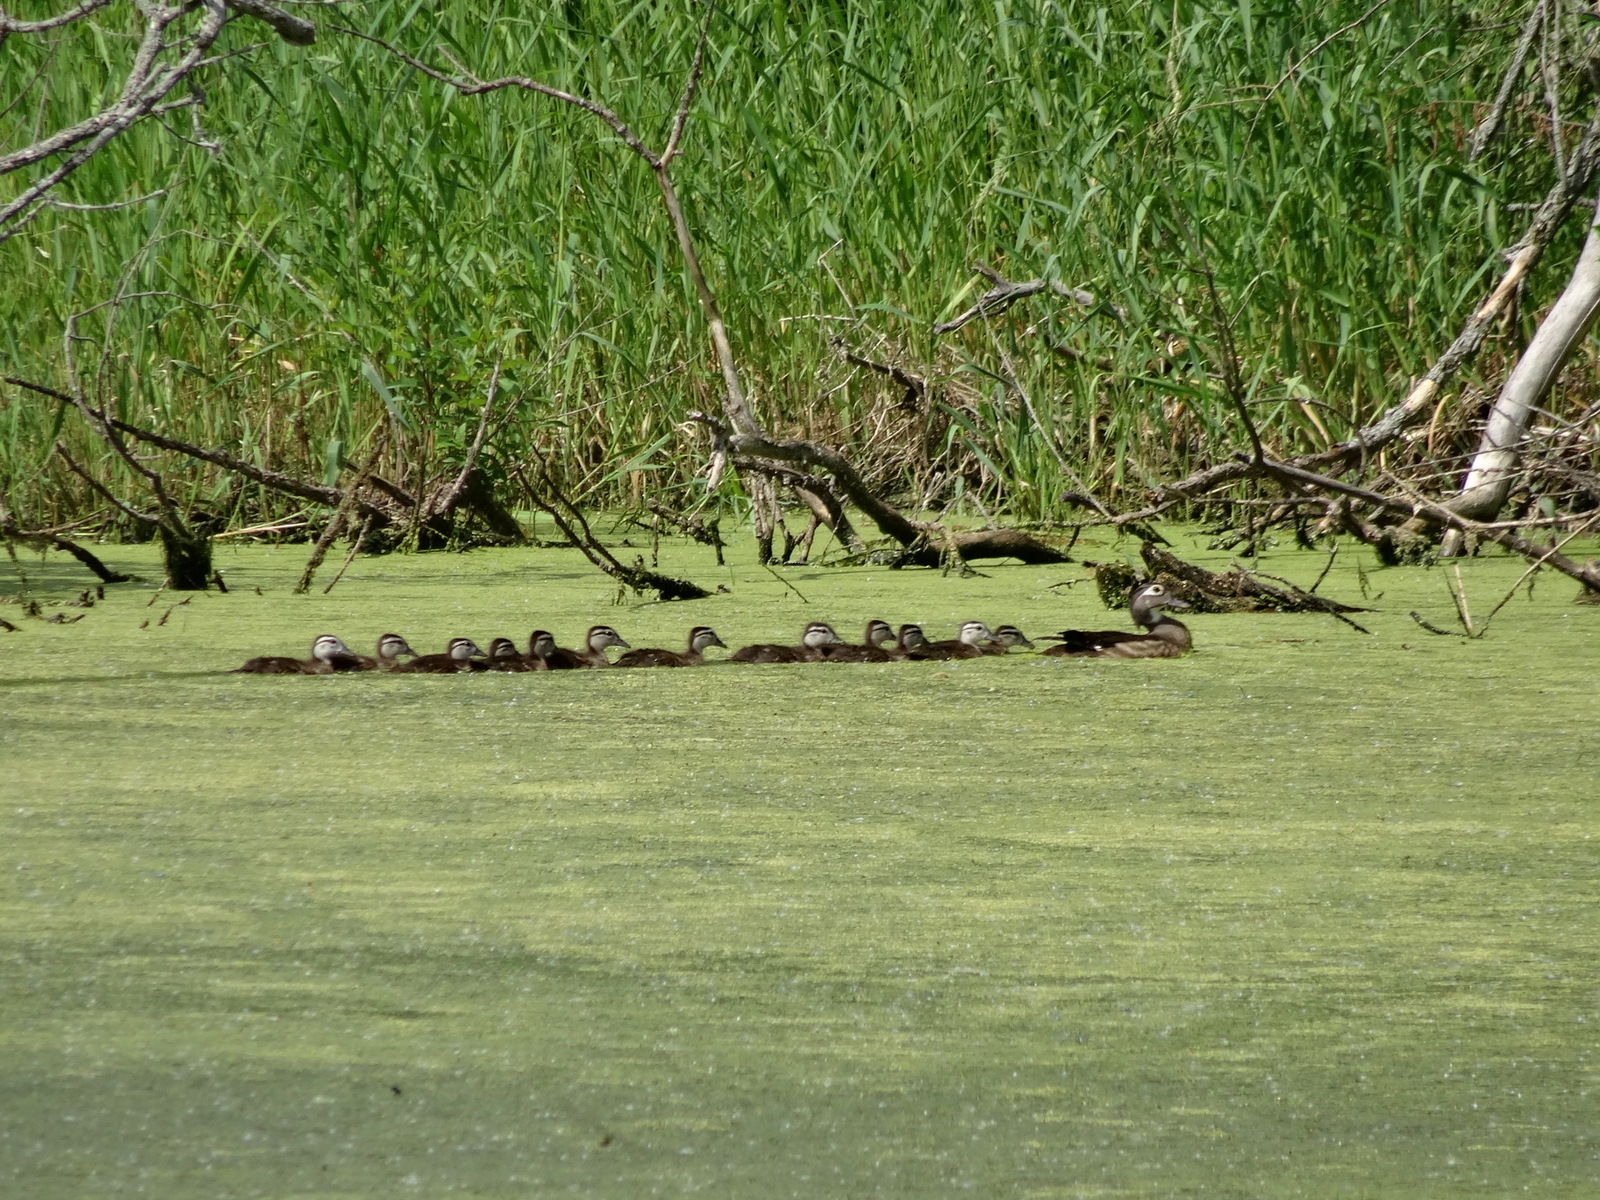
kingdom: Animalia
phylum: Chordata
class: Aves
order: Anseriformes
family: Anatidae
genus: Aix
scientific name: Aix sponsa
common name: Wood duck
